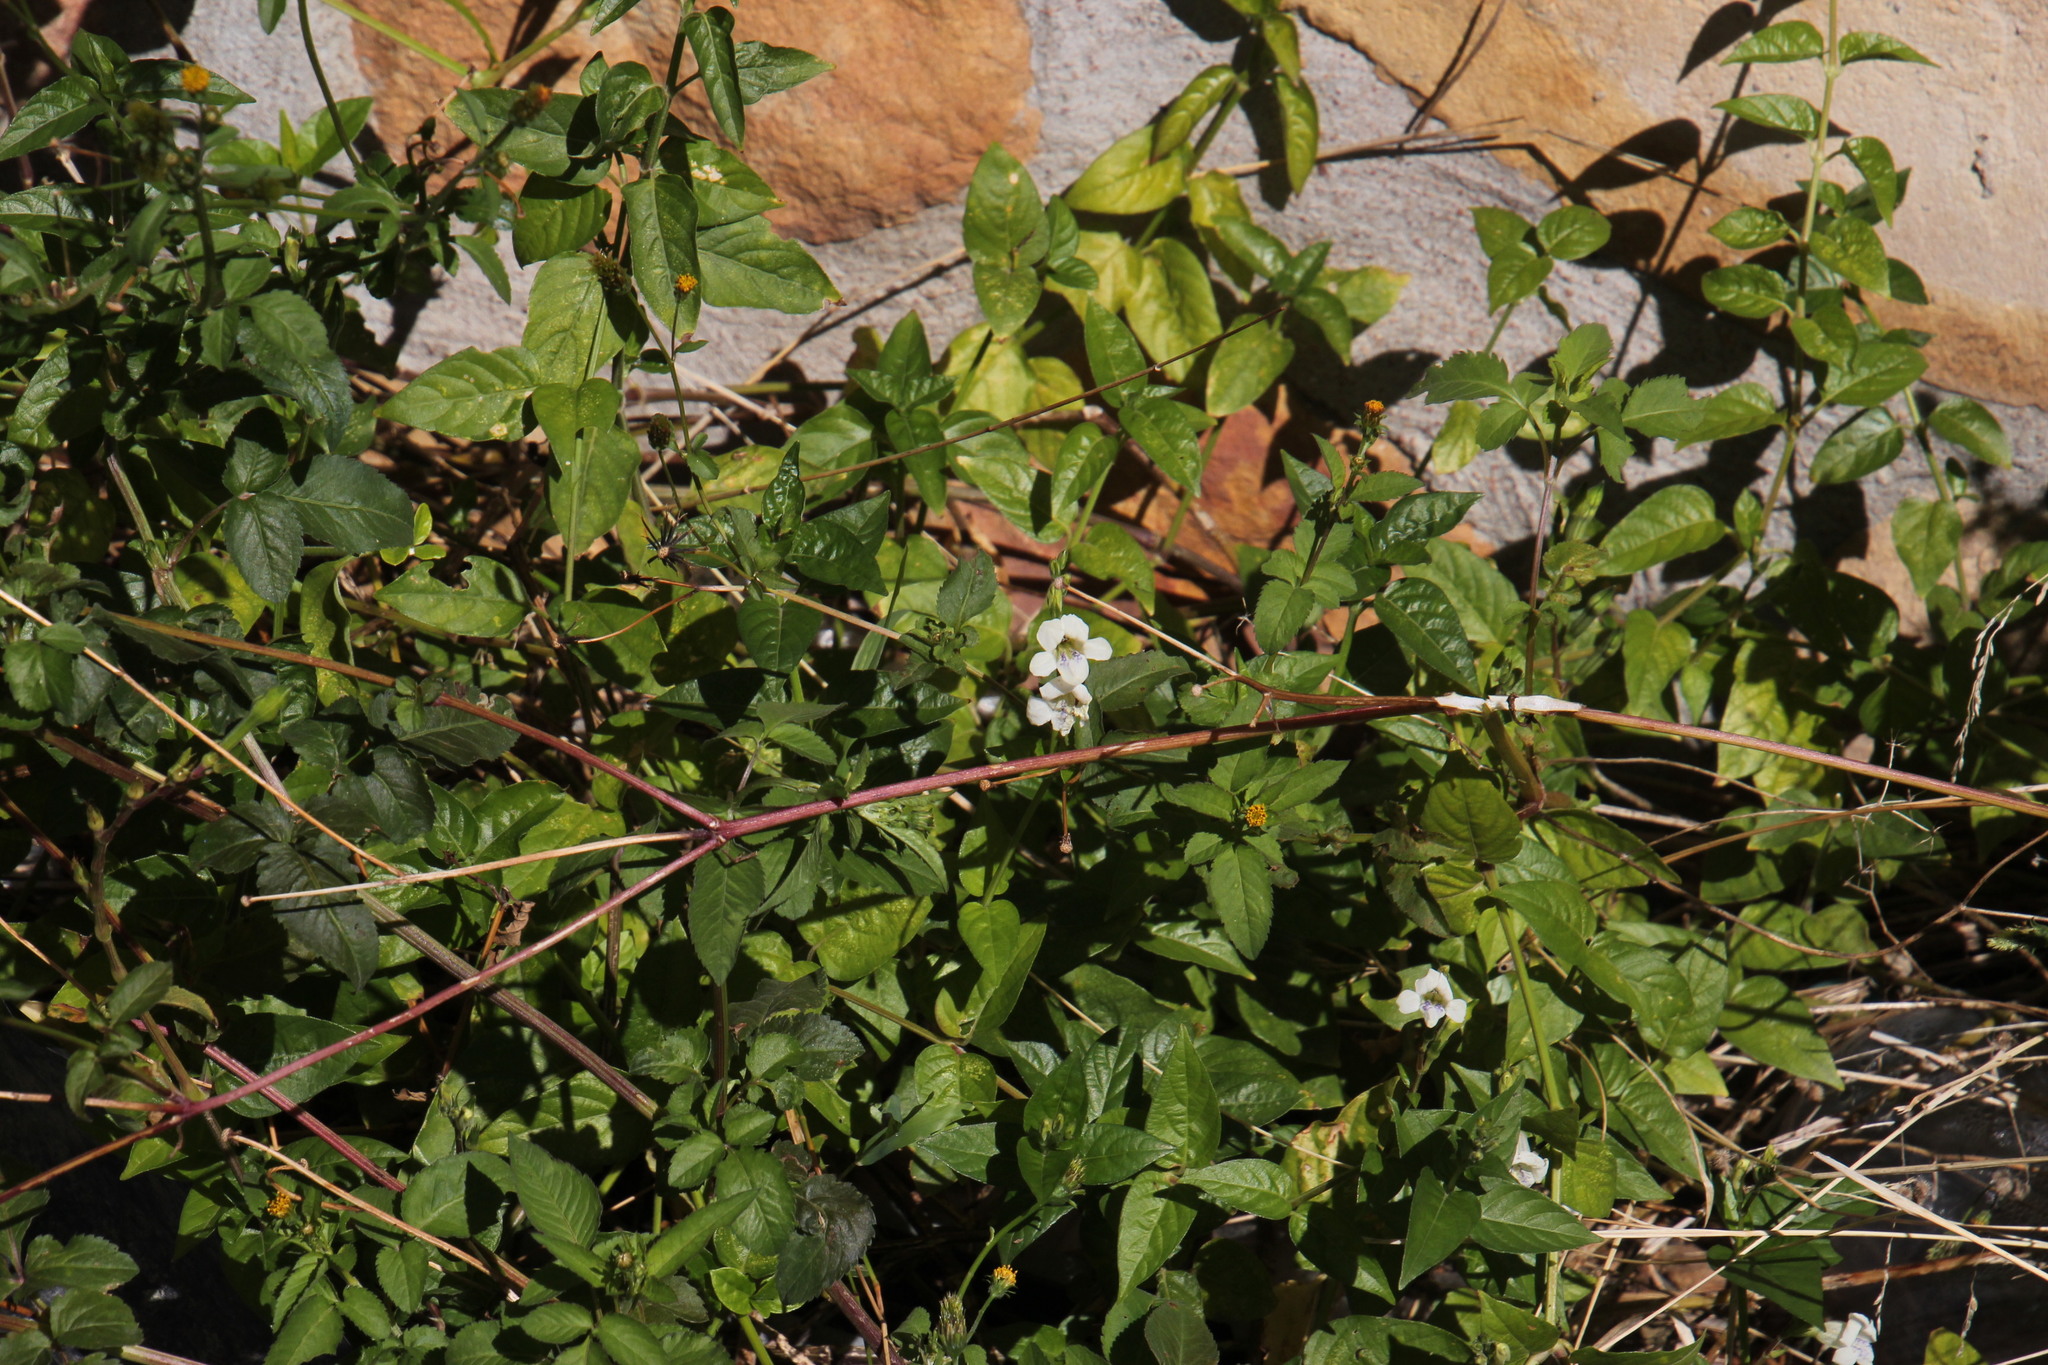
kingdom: Plantae
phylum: Tracheophyta
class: Magnoliopsida
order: Lamiales
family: Acanthaceae
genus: Asystasia
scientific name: Asystasia intrusa
